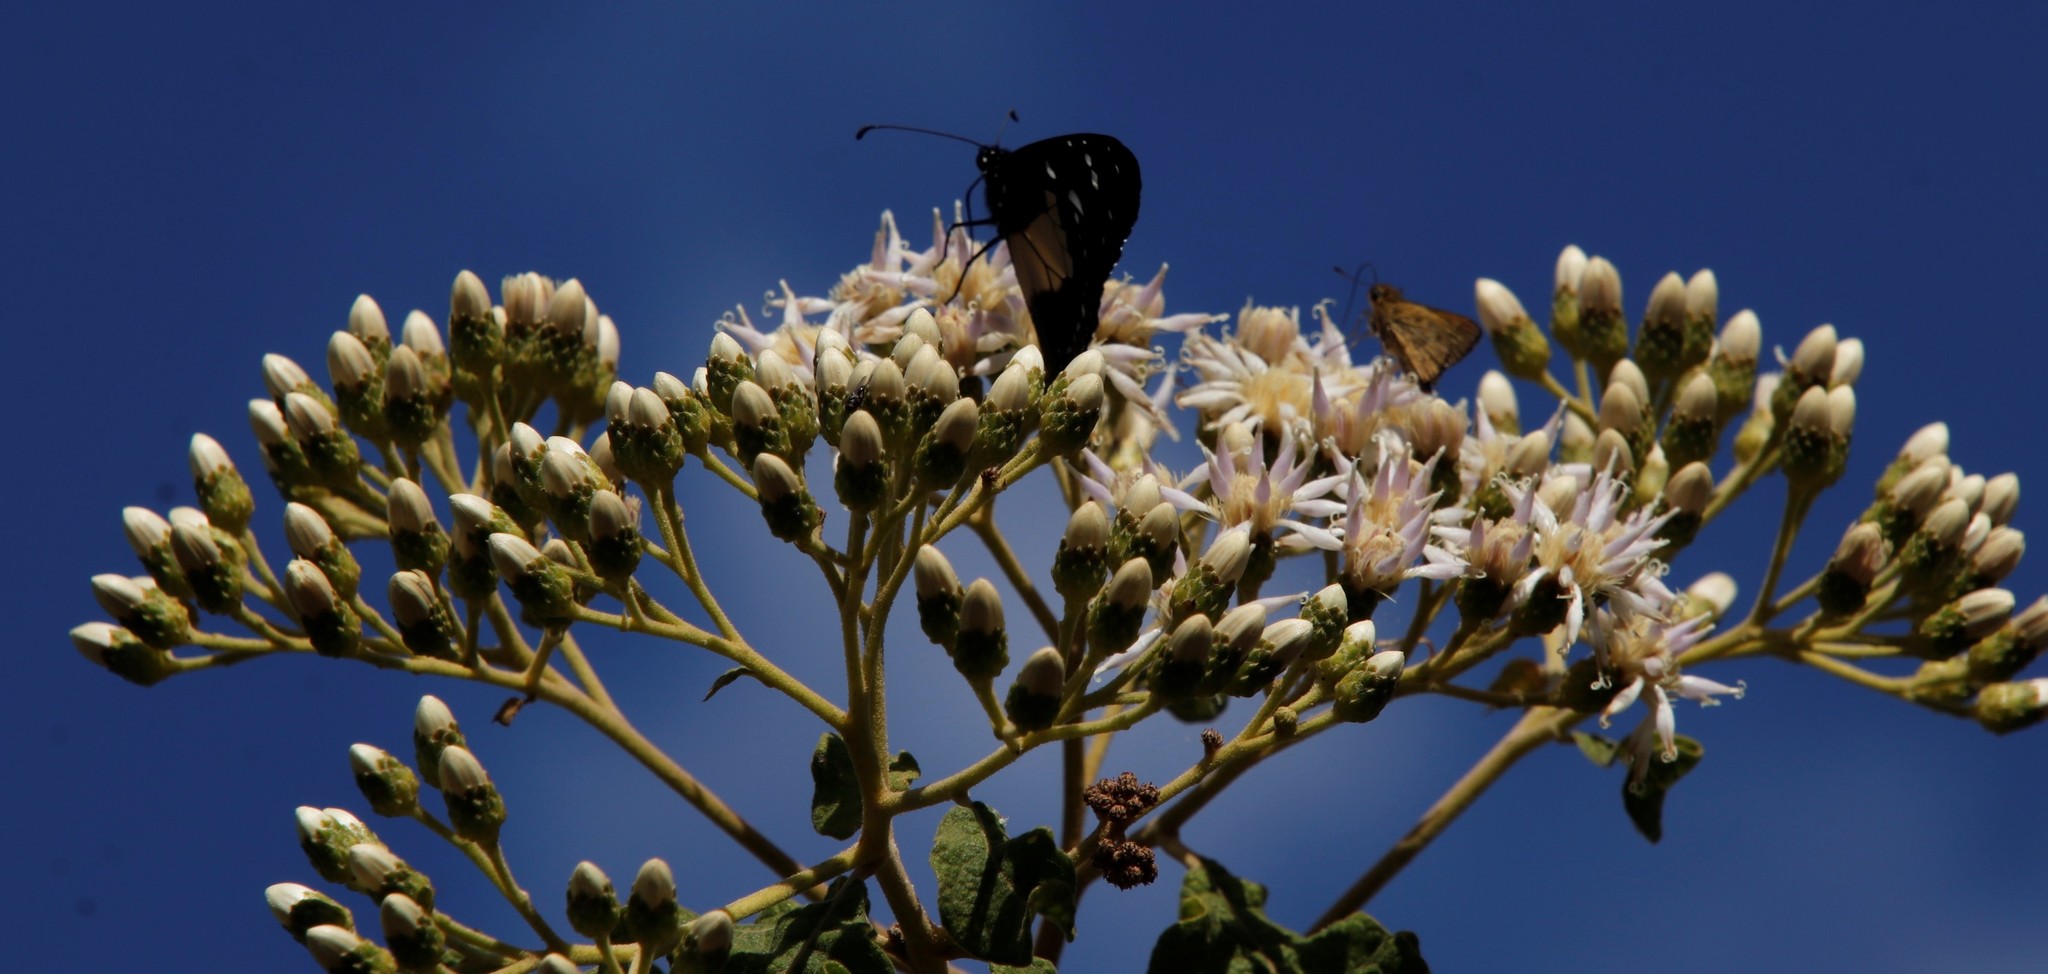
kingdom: Animalia
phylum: Arthropoda
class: Insecta
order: Lepidoptera
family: Nymphalidae
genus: Amauris
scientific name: Amauris albimaculata
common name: Layman
